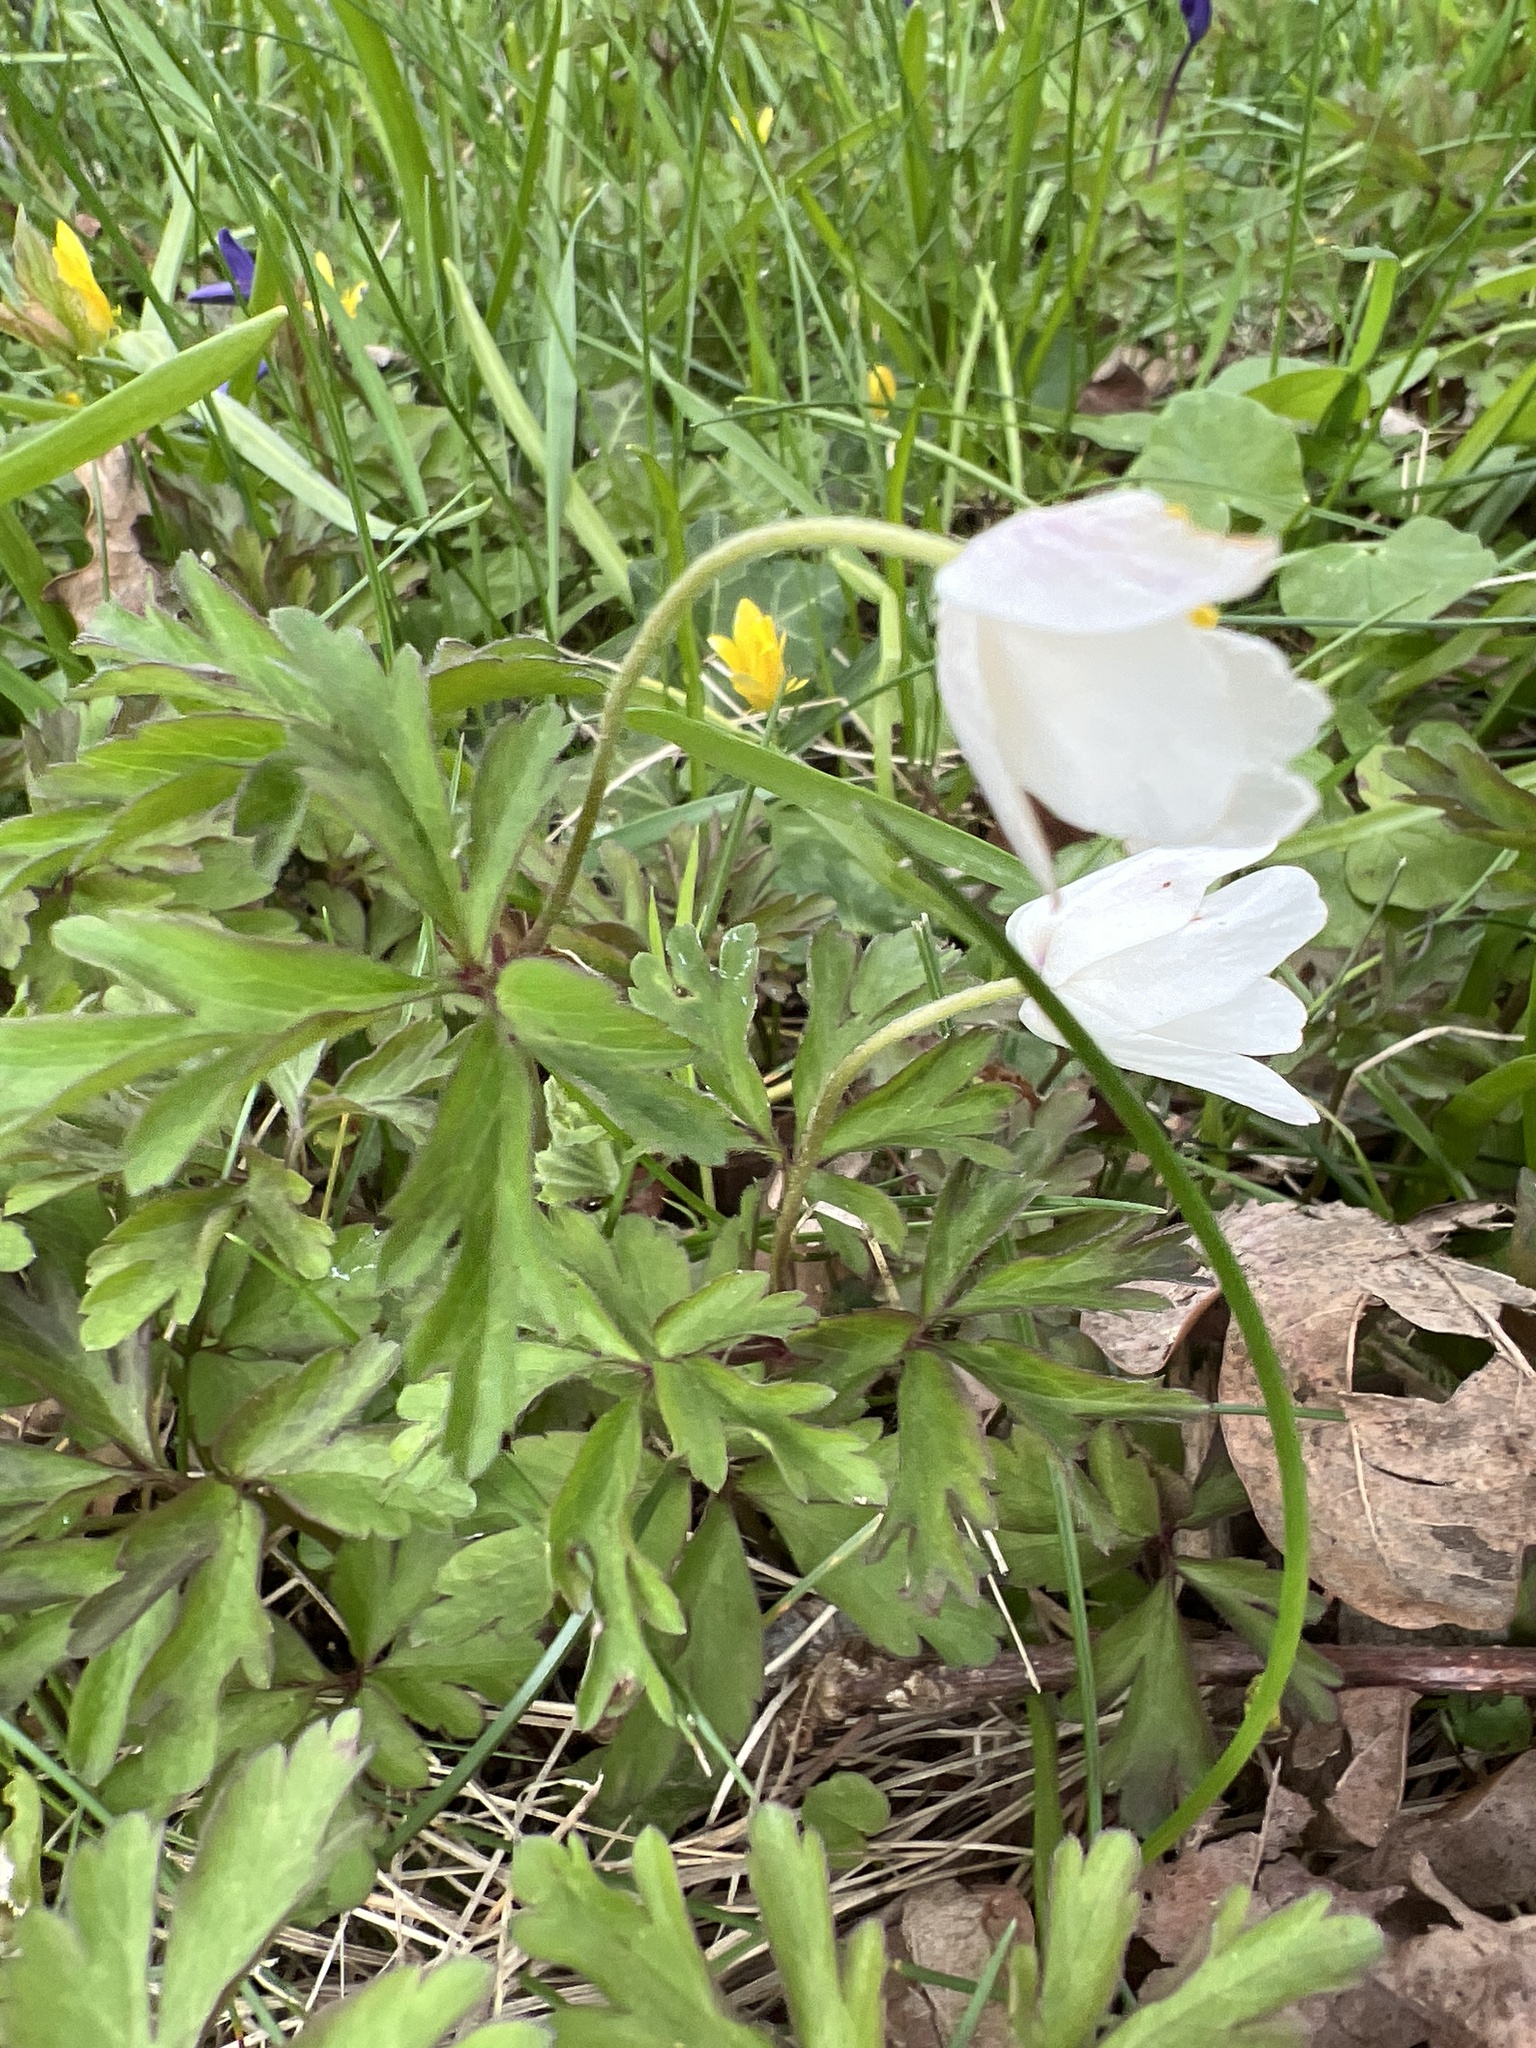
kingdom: Plantae
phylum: Tracheophyta
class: Magnoliopsida
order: Ranunculales
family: Ranunculaceae
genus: Anemone
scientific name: Anemone nemorosa
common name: Wood anemone
